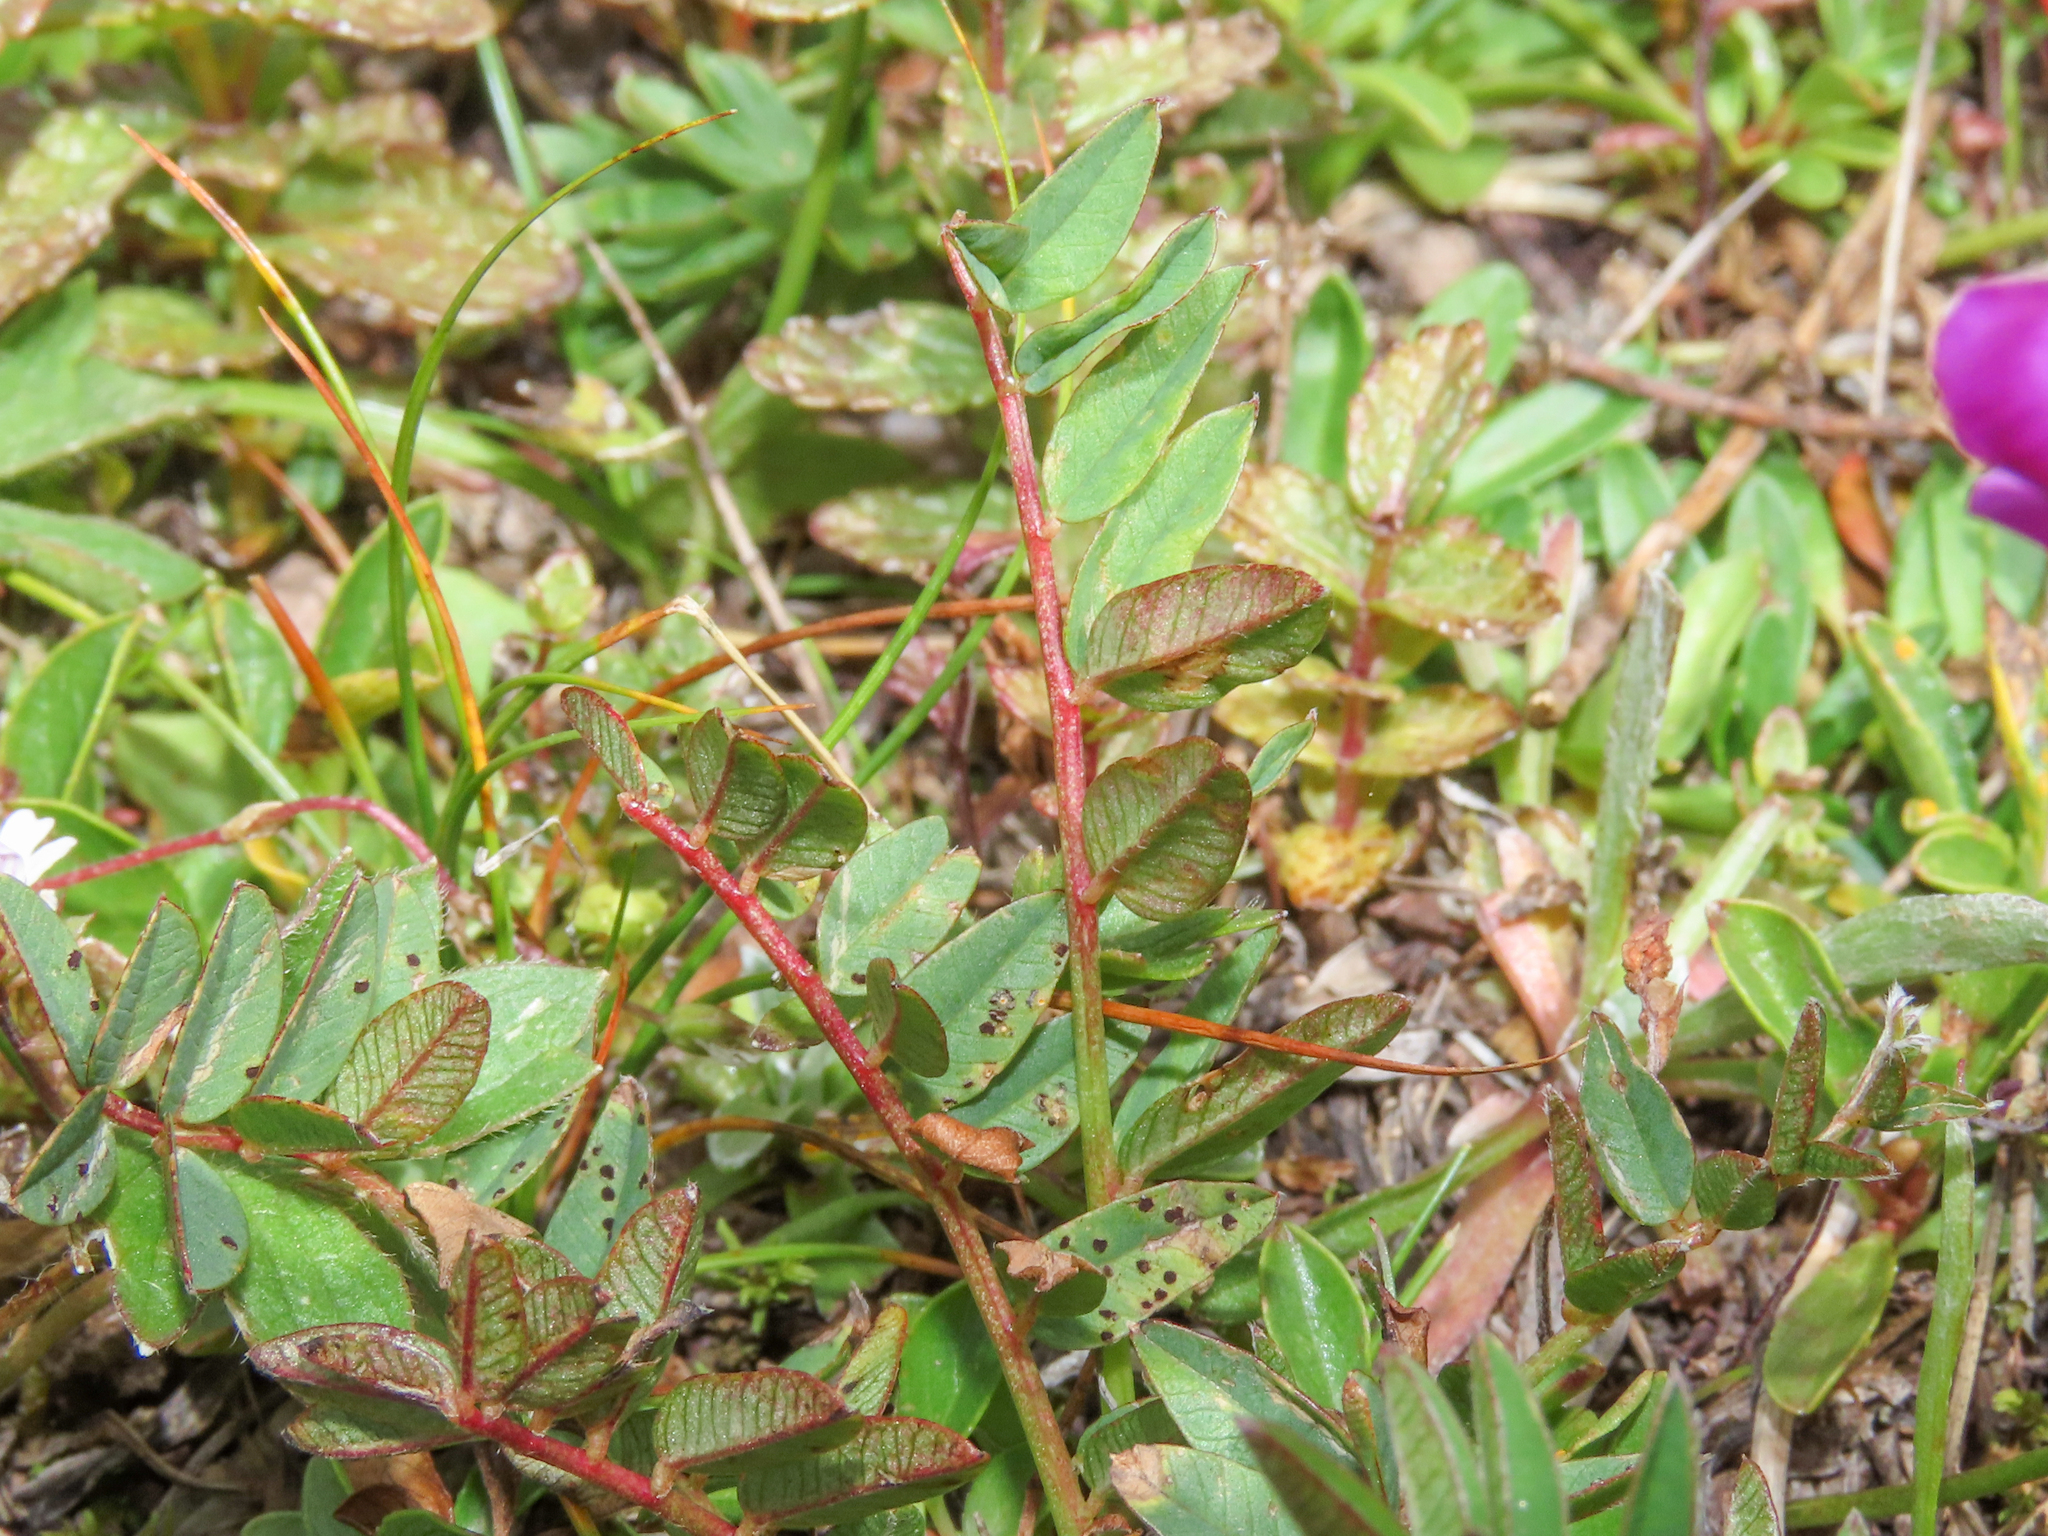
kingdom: Plantae
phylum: Tracheophyta
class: Magnoliopsida
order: Fabales
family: Fabaceae
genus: Hedysarum
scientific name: Hedysarum hedysaroides
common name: Alpine french-honeysuckle
